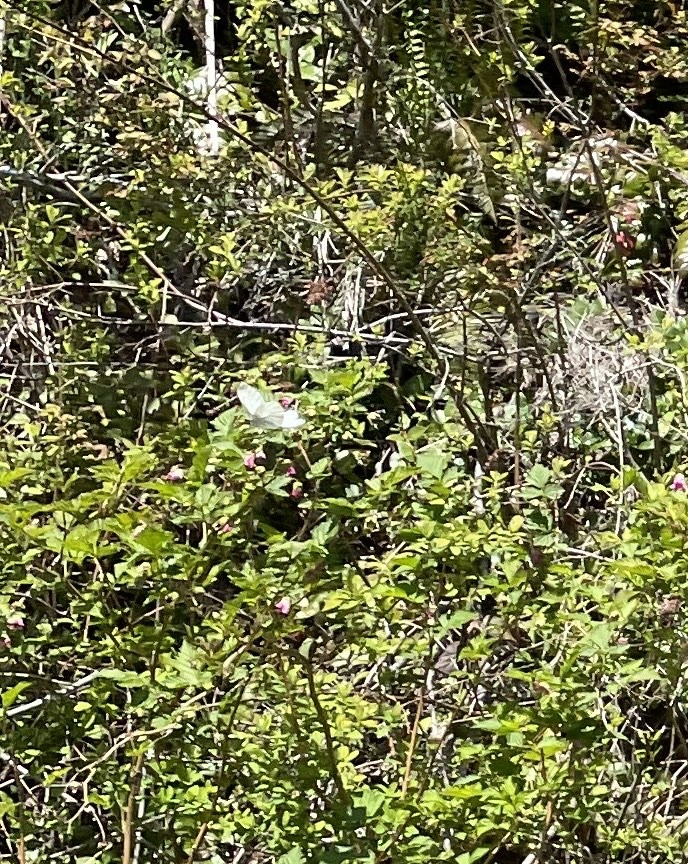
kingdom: Animalia
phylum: Arthropoda
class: Insecta
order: Lepidoptera
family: Pieridae
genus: Pieris
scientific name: Pieris marginalis
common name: Margined white
